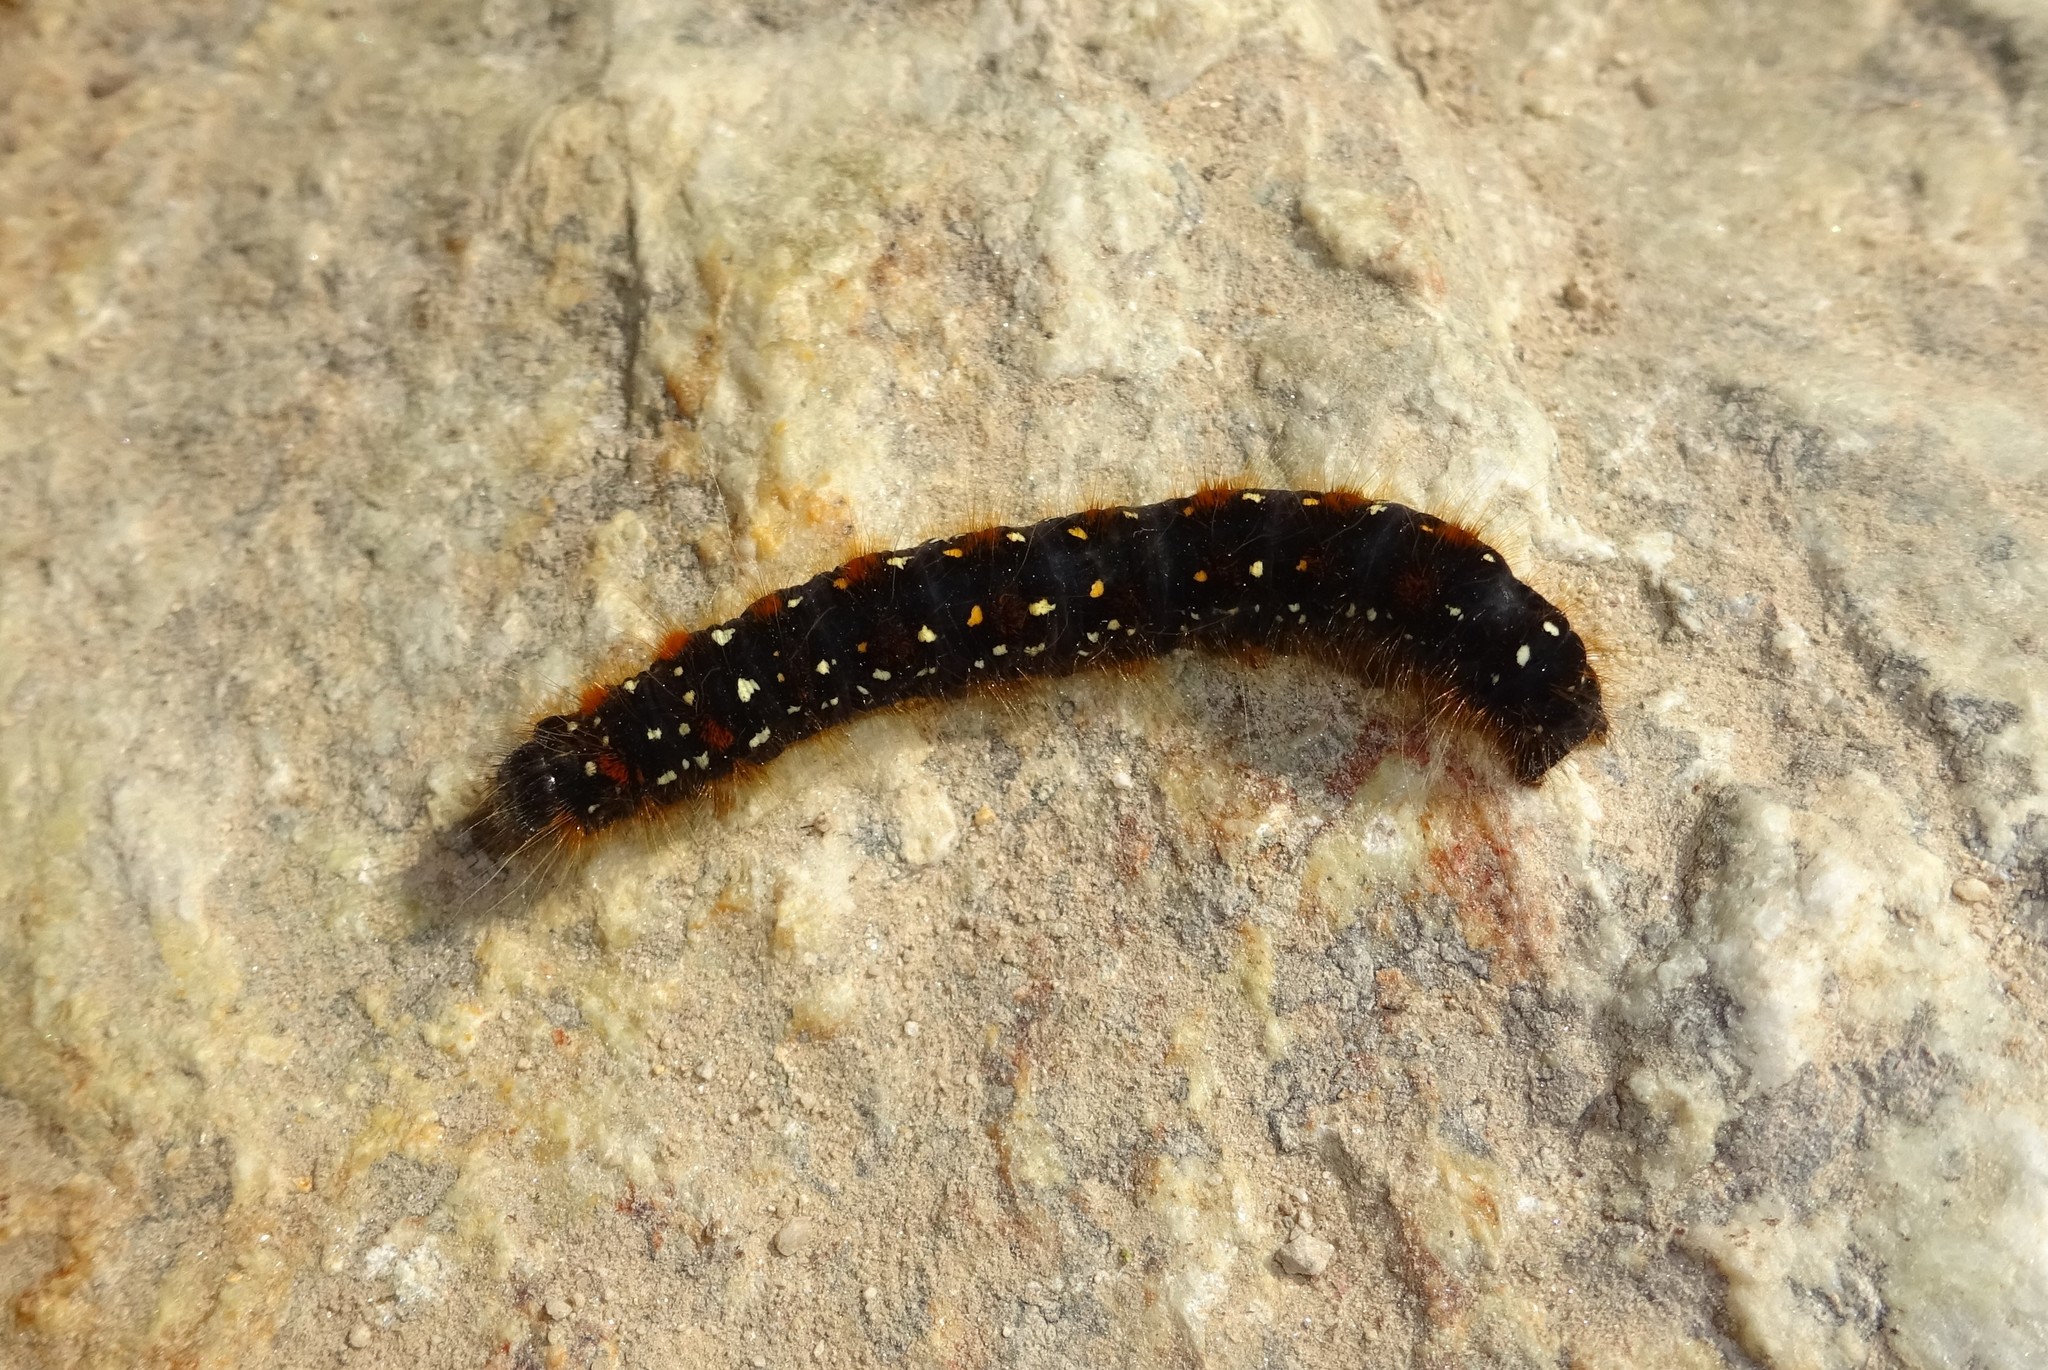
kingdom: Animalia
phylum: Arthropoda
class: Insecta
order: Lepidoptera
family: Lasiocampidae
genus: Eriogaster
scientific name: Eriogaster arbusculae
